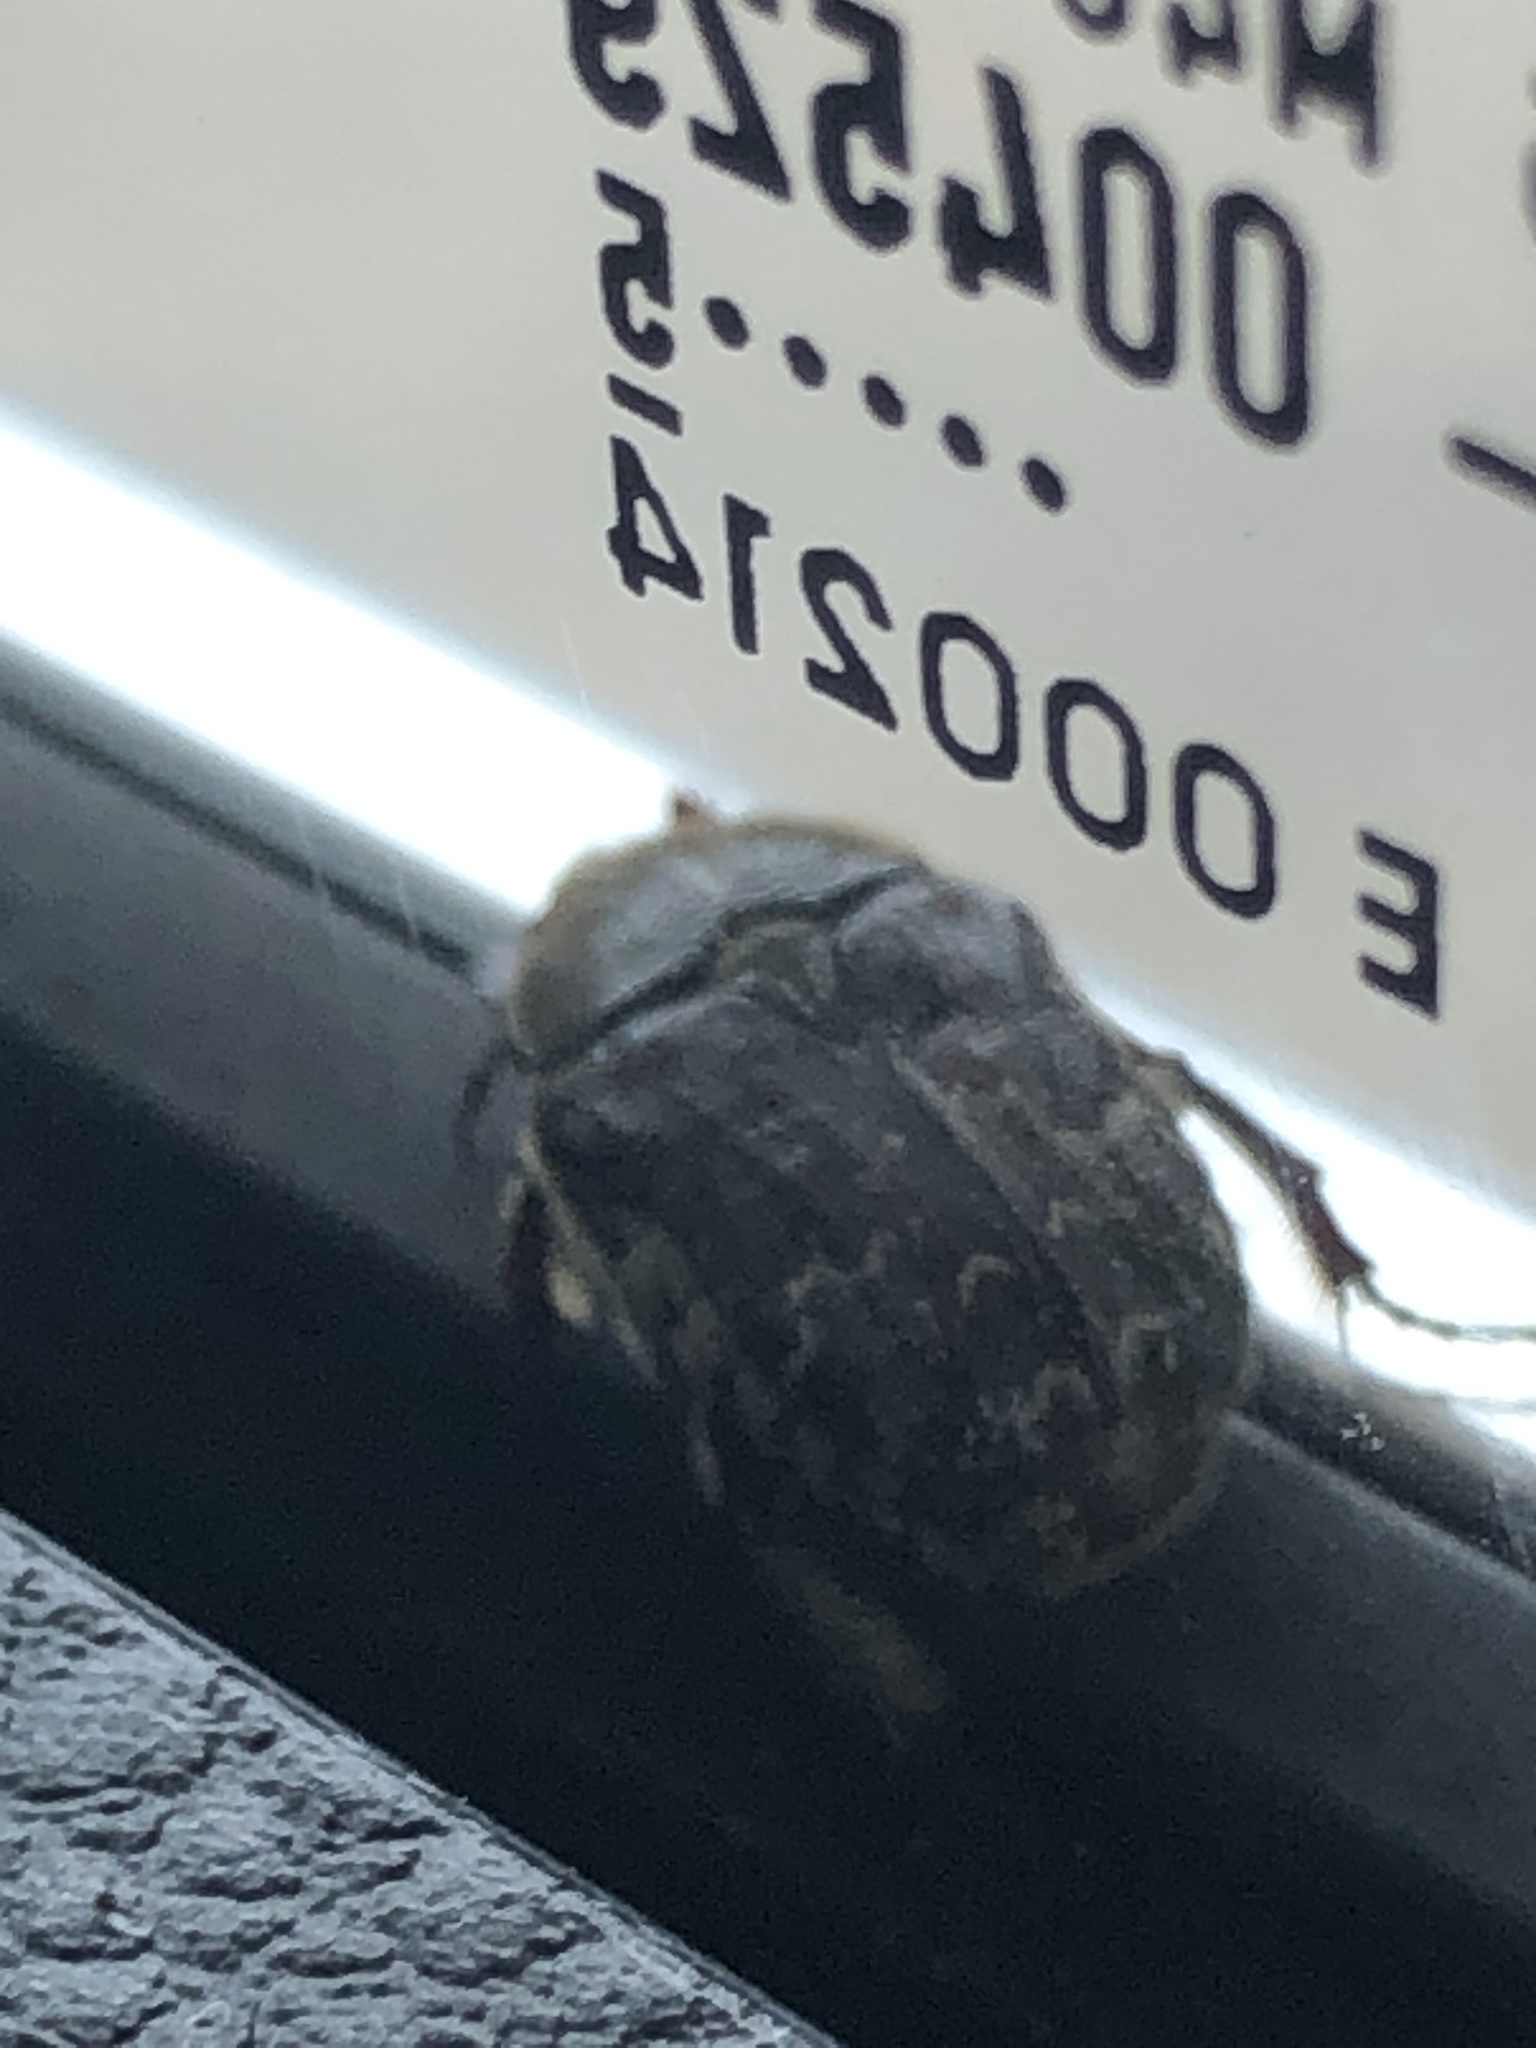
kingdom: Animalia
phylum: Arthropoda
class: Insecta
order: Coleoptera
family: Scarabaeidae
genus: Euphoria
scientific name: Euphoria sepulcralis
